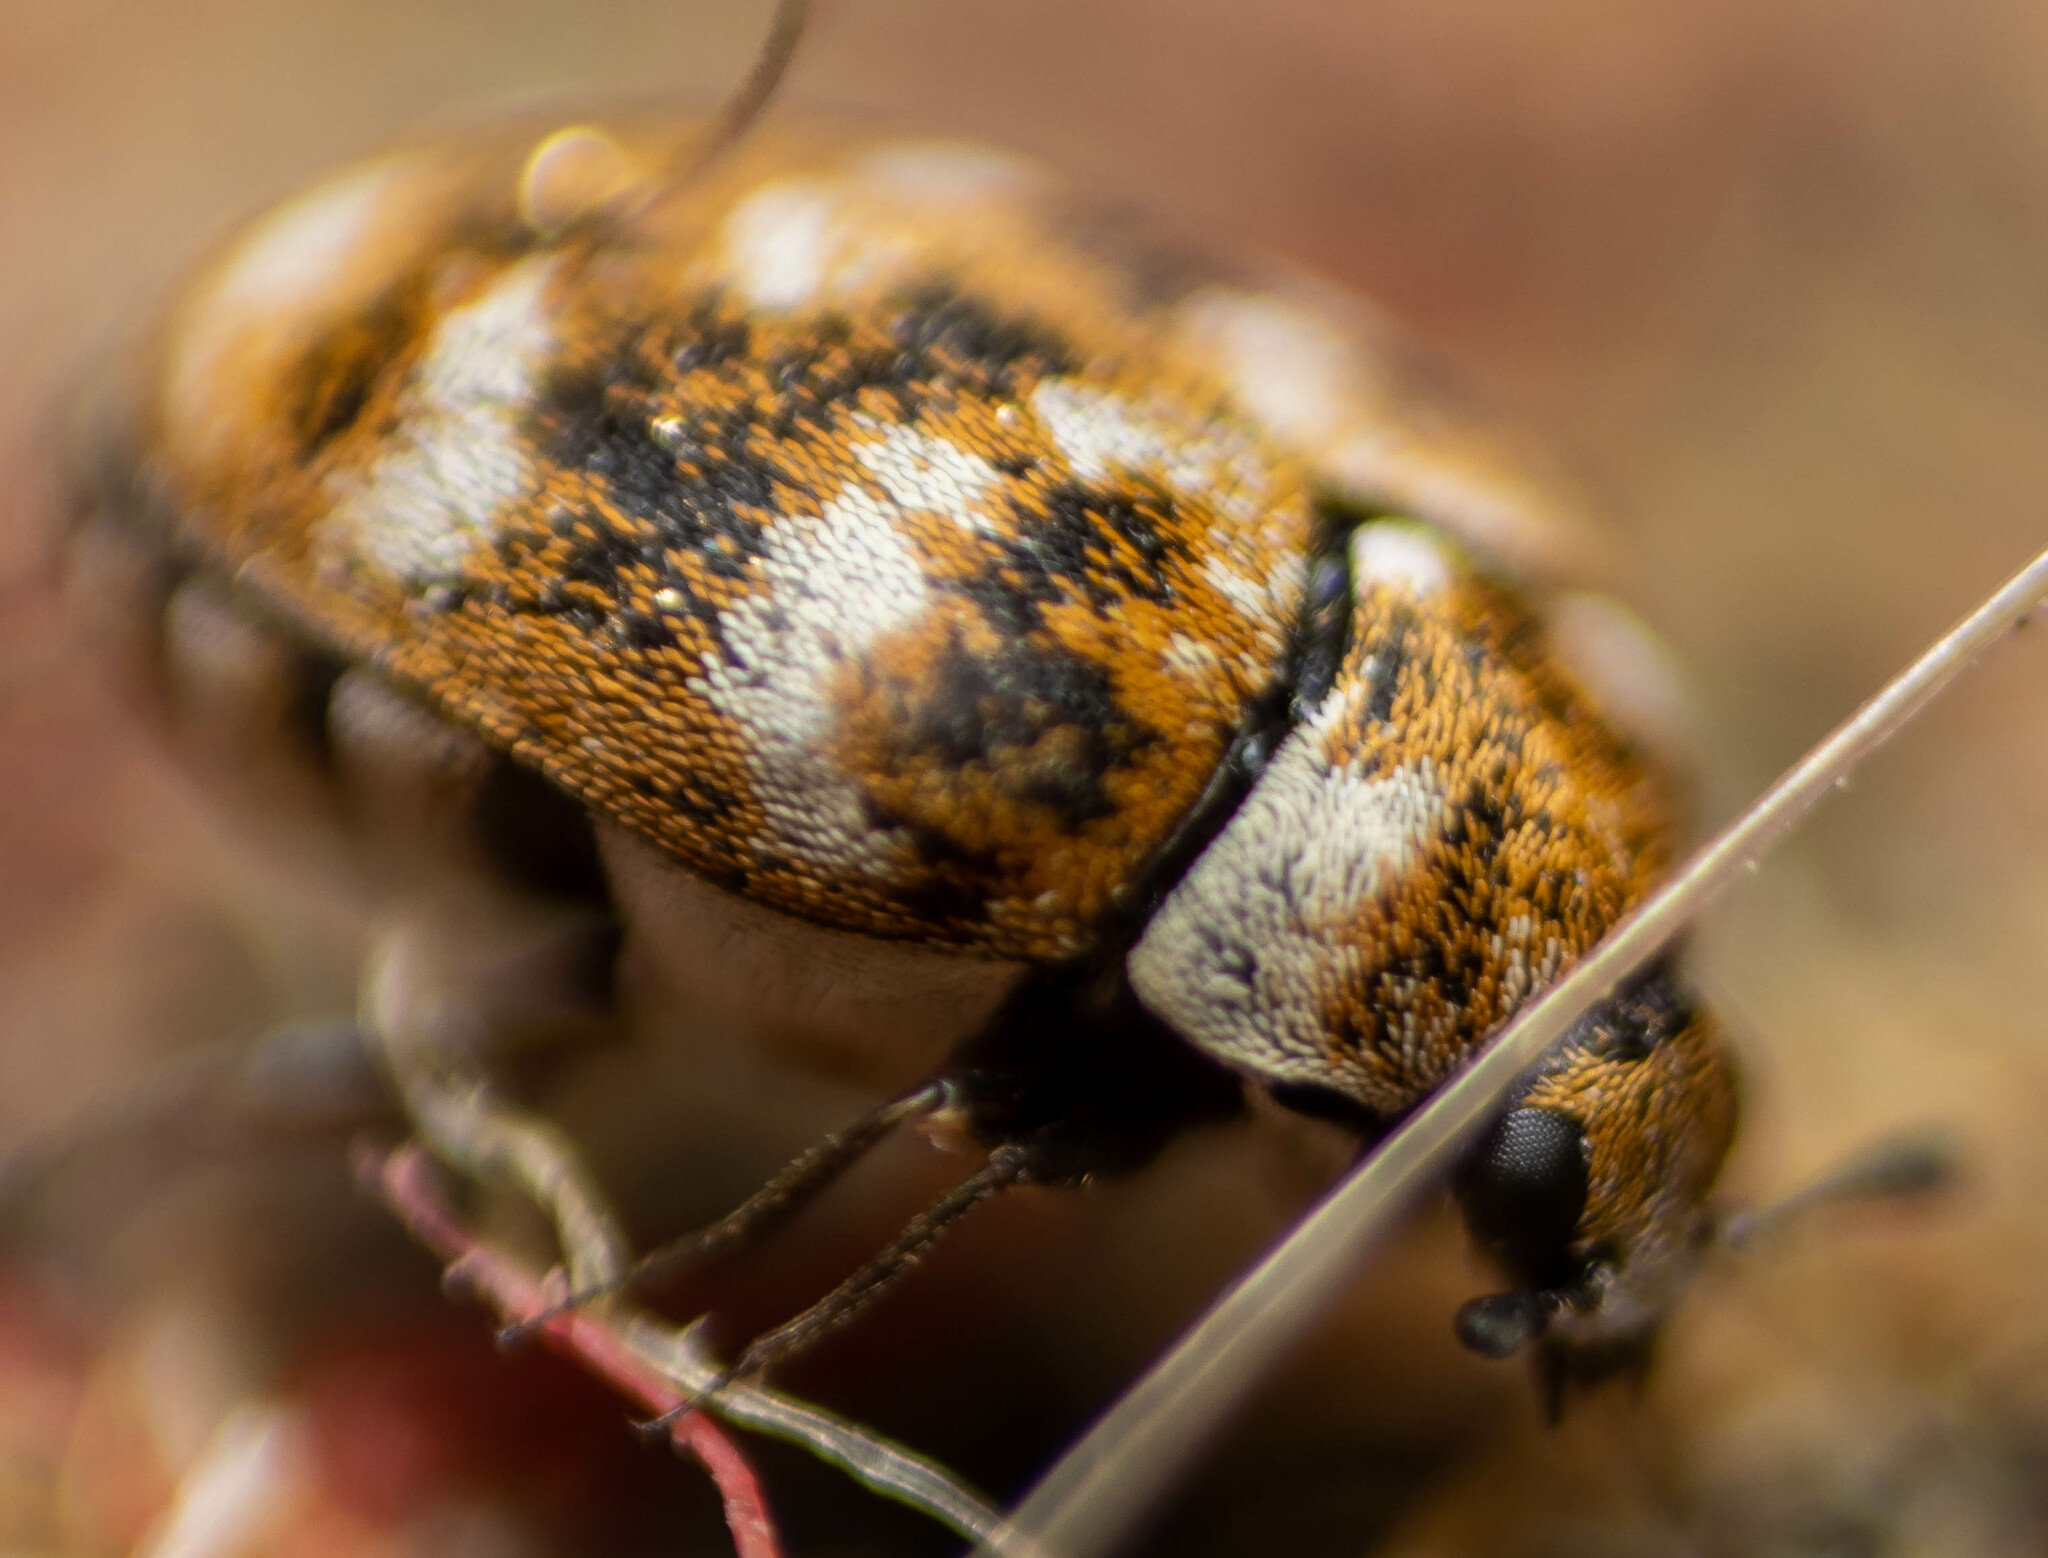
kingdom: Animalia
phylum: Arthropoda
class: Insecta
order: Coleoptera
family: Dermestidae
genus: Anthrenus
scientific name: Anthrenus verbasci
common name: Varied carpet beetle
